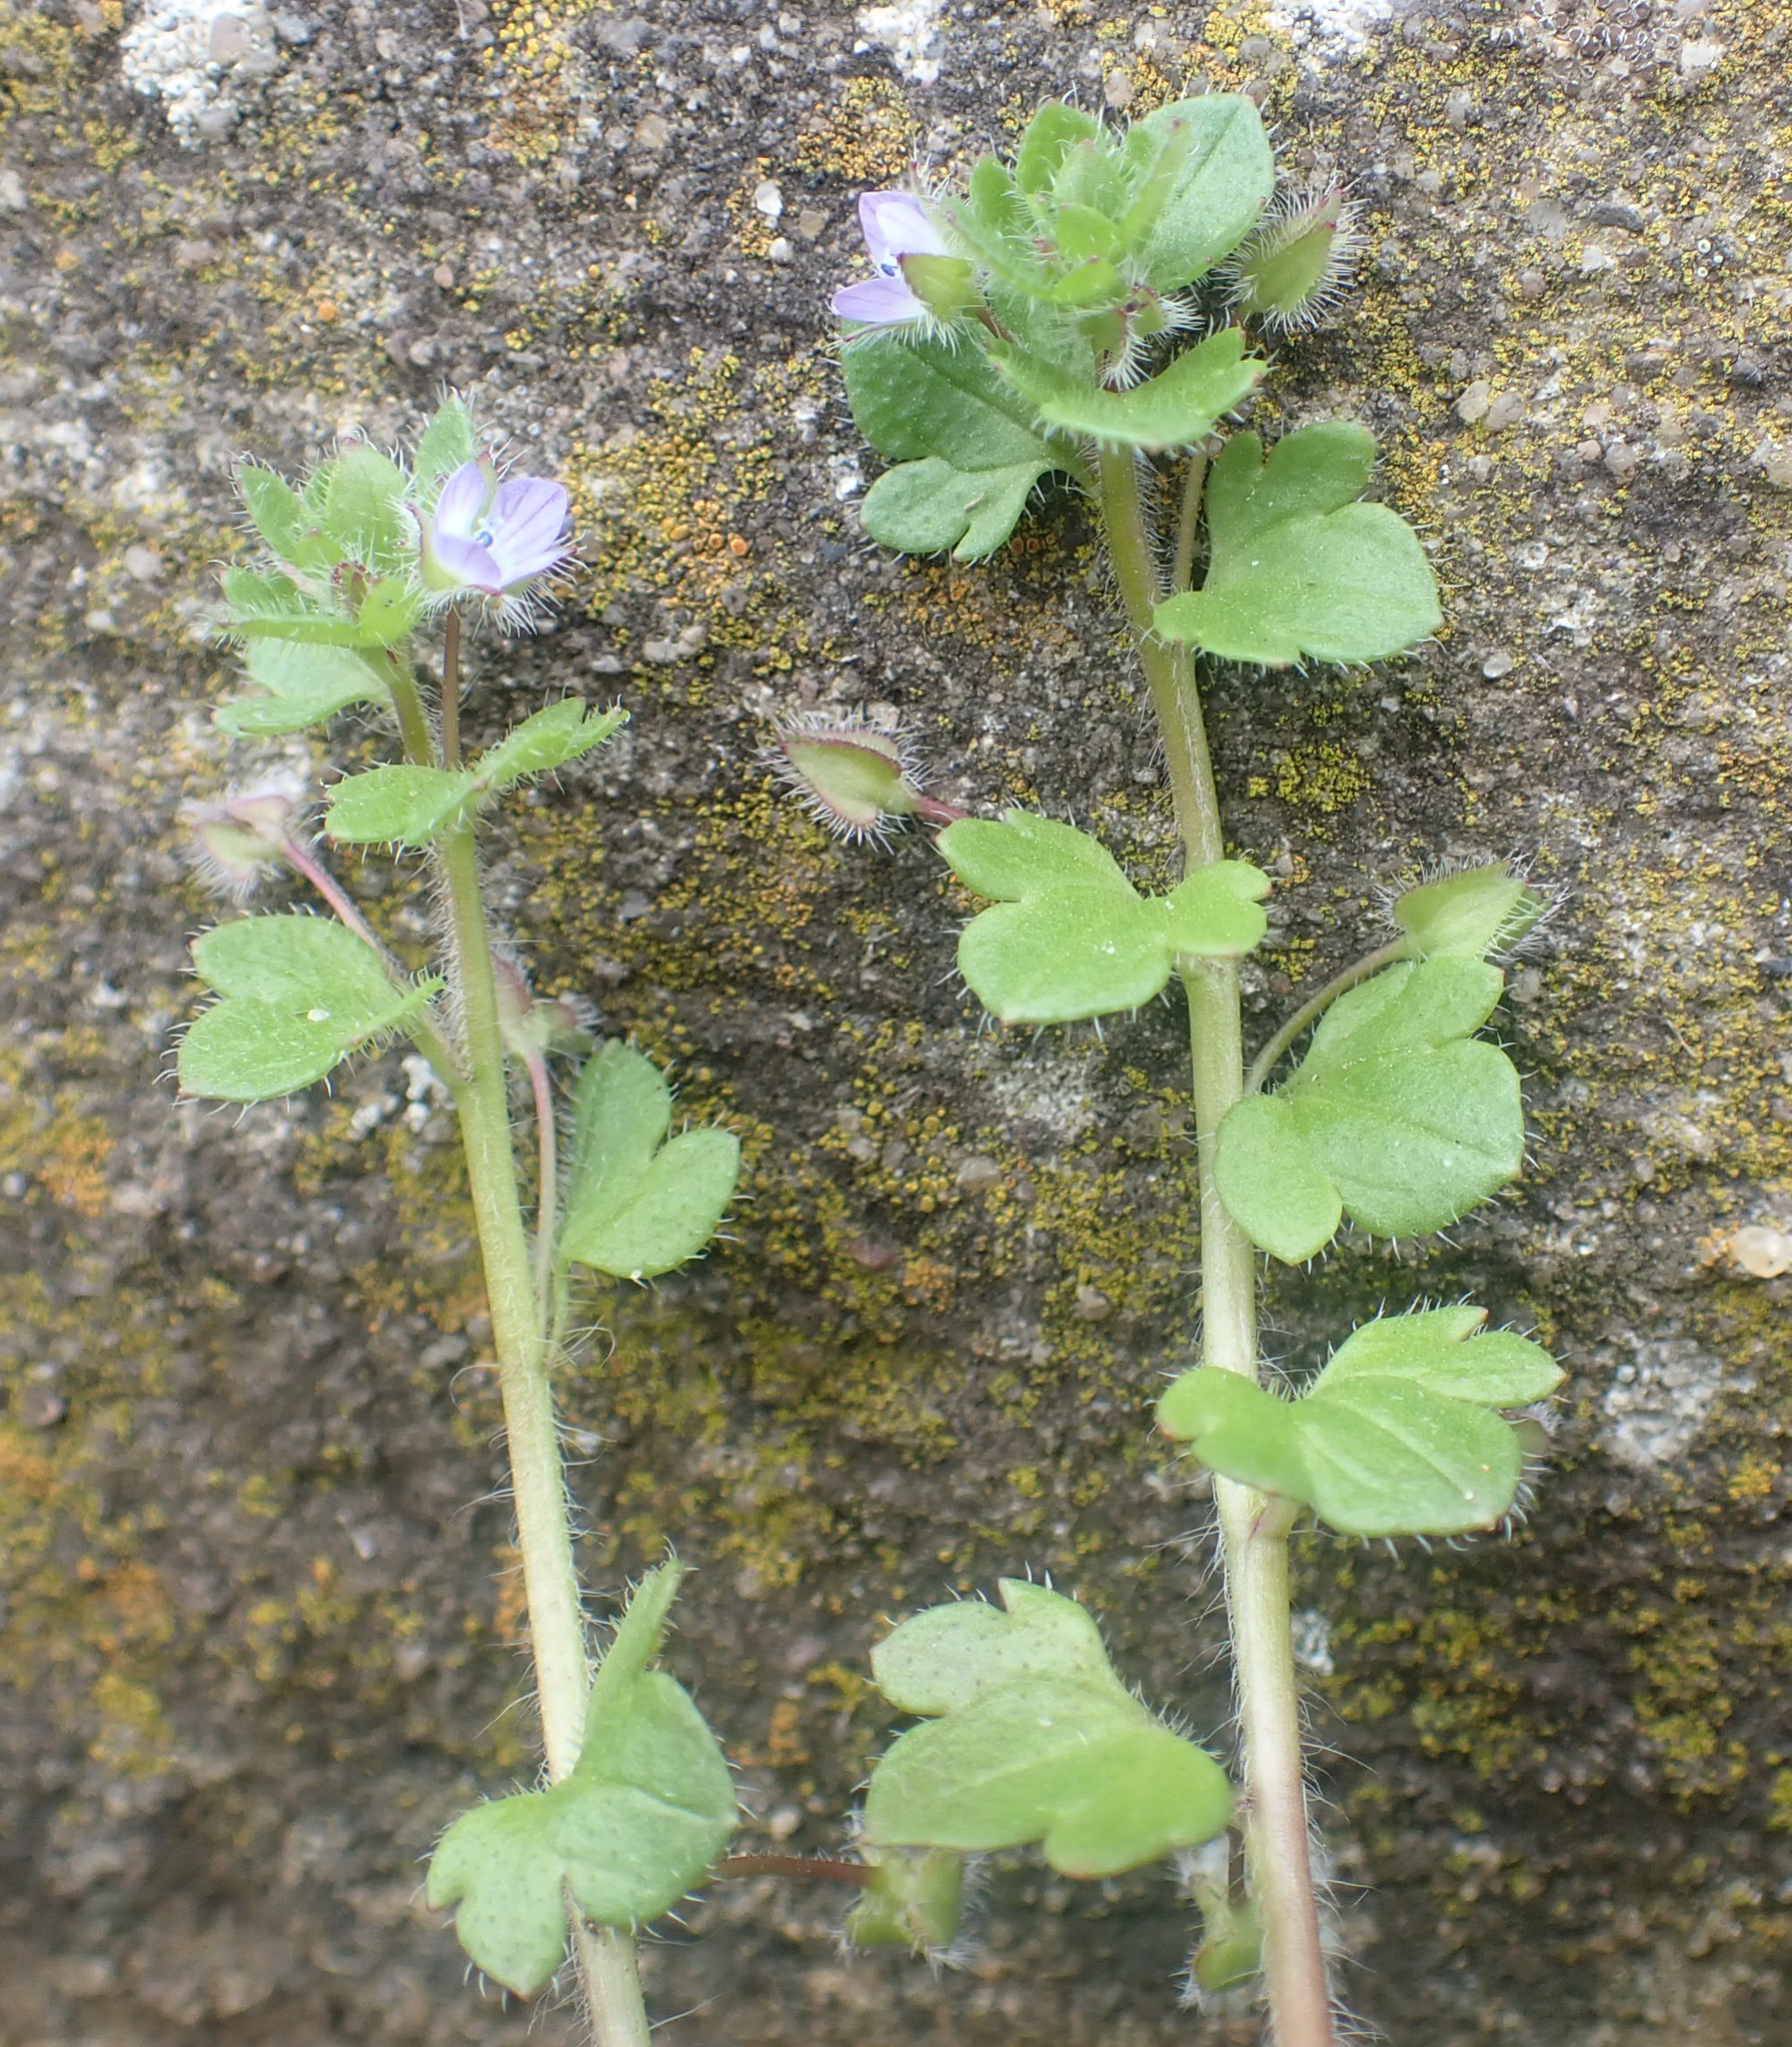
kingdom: Plantae
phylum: Tracheophyta
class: Magnoliopsida
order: Lamiales
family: Plantaginaceae
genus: Veronica
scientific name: Veronica hederifolia
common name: Ivy-leaved speedwell
